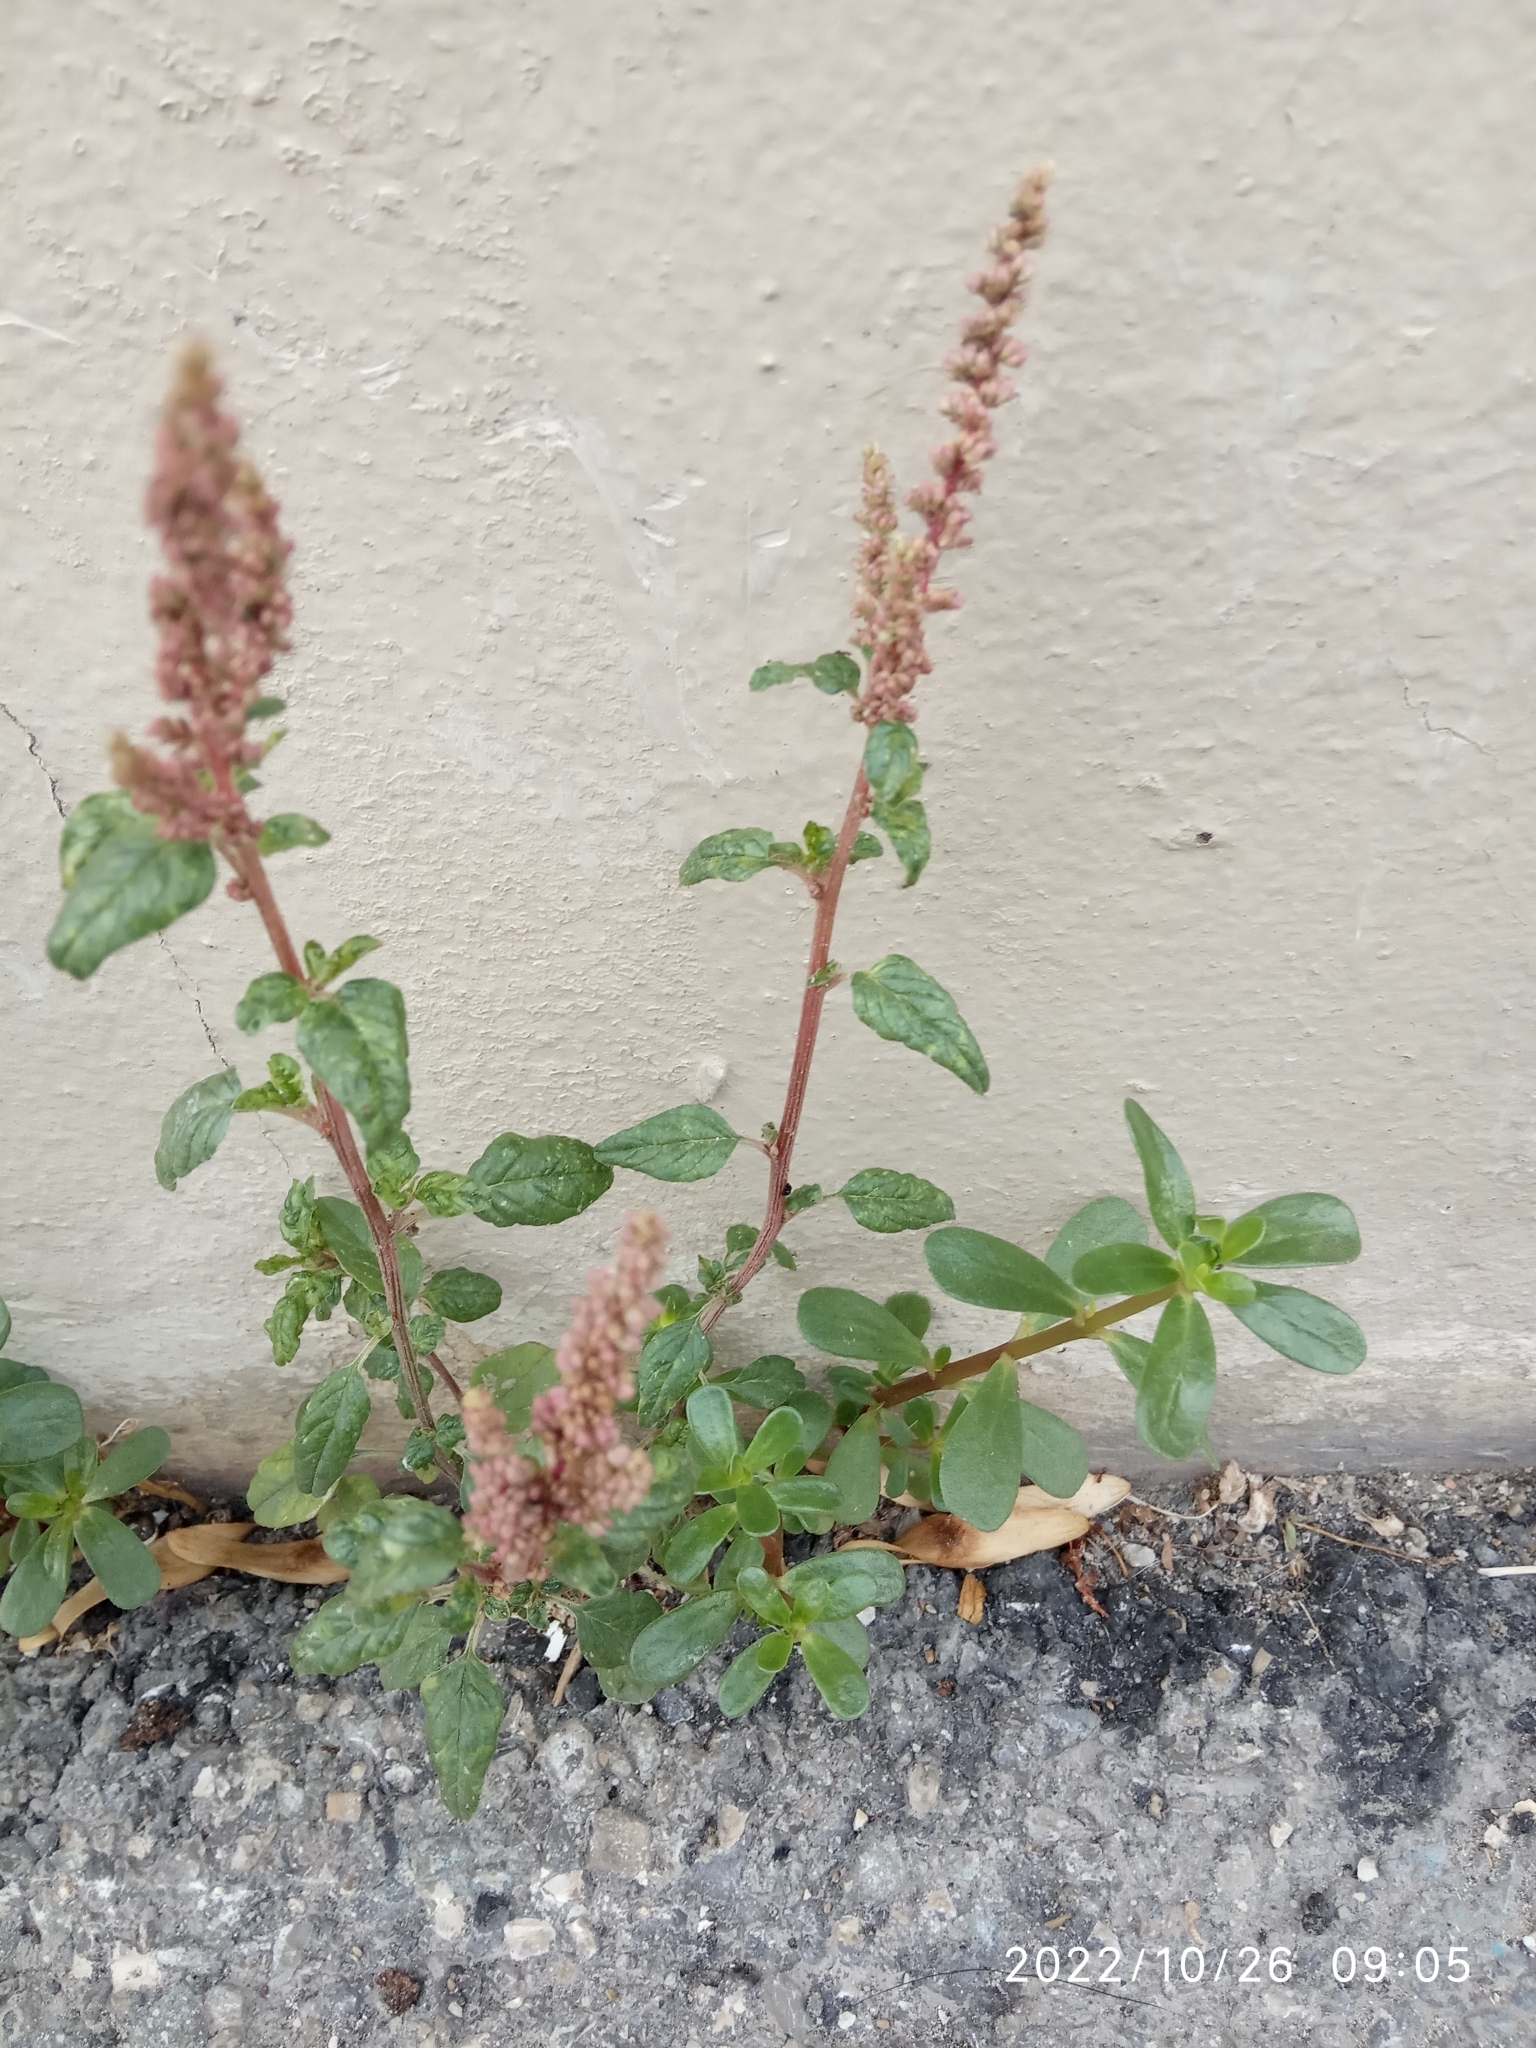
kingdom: Plantae
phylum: Tracheophyta
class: Magnoliopsida
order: Caryophyllales
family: Amaranthaceae
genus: Amaranthus
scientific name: Amaranthus deflexus
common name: Perennial pigweed
